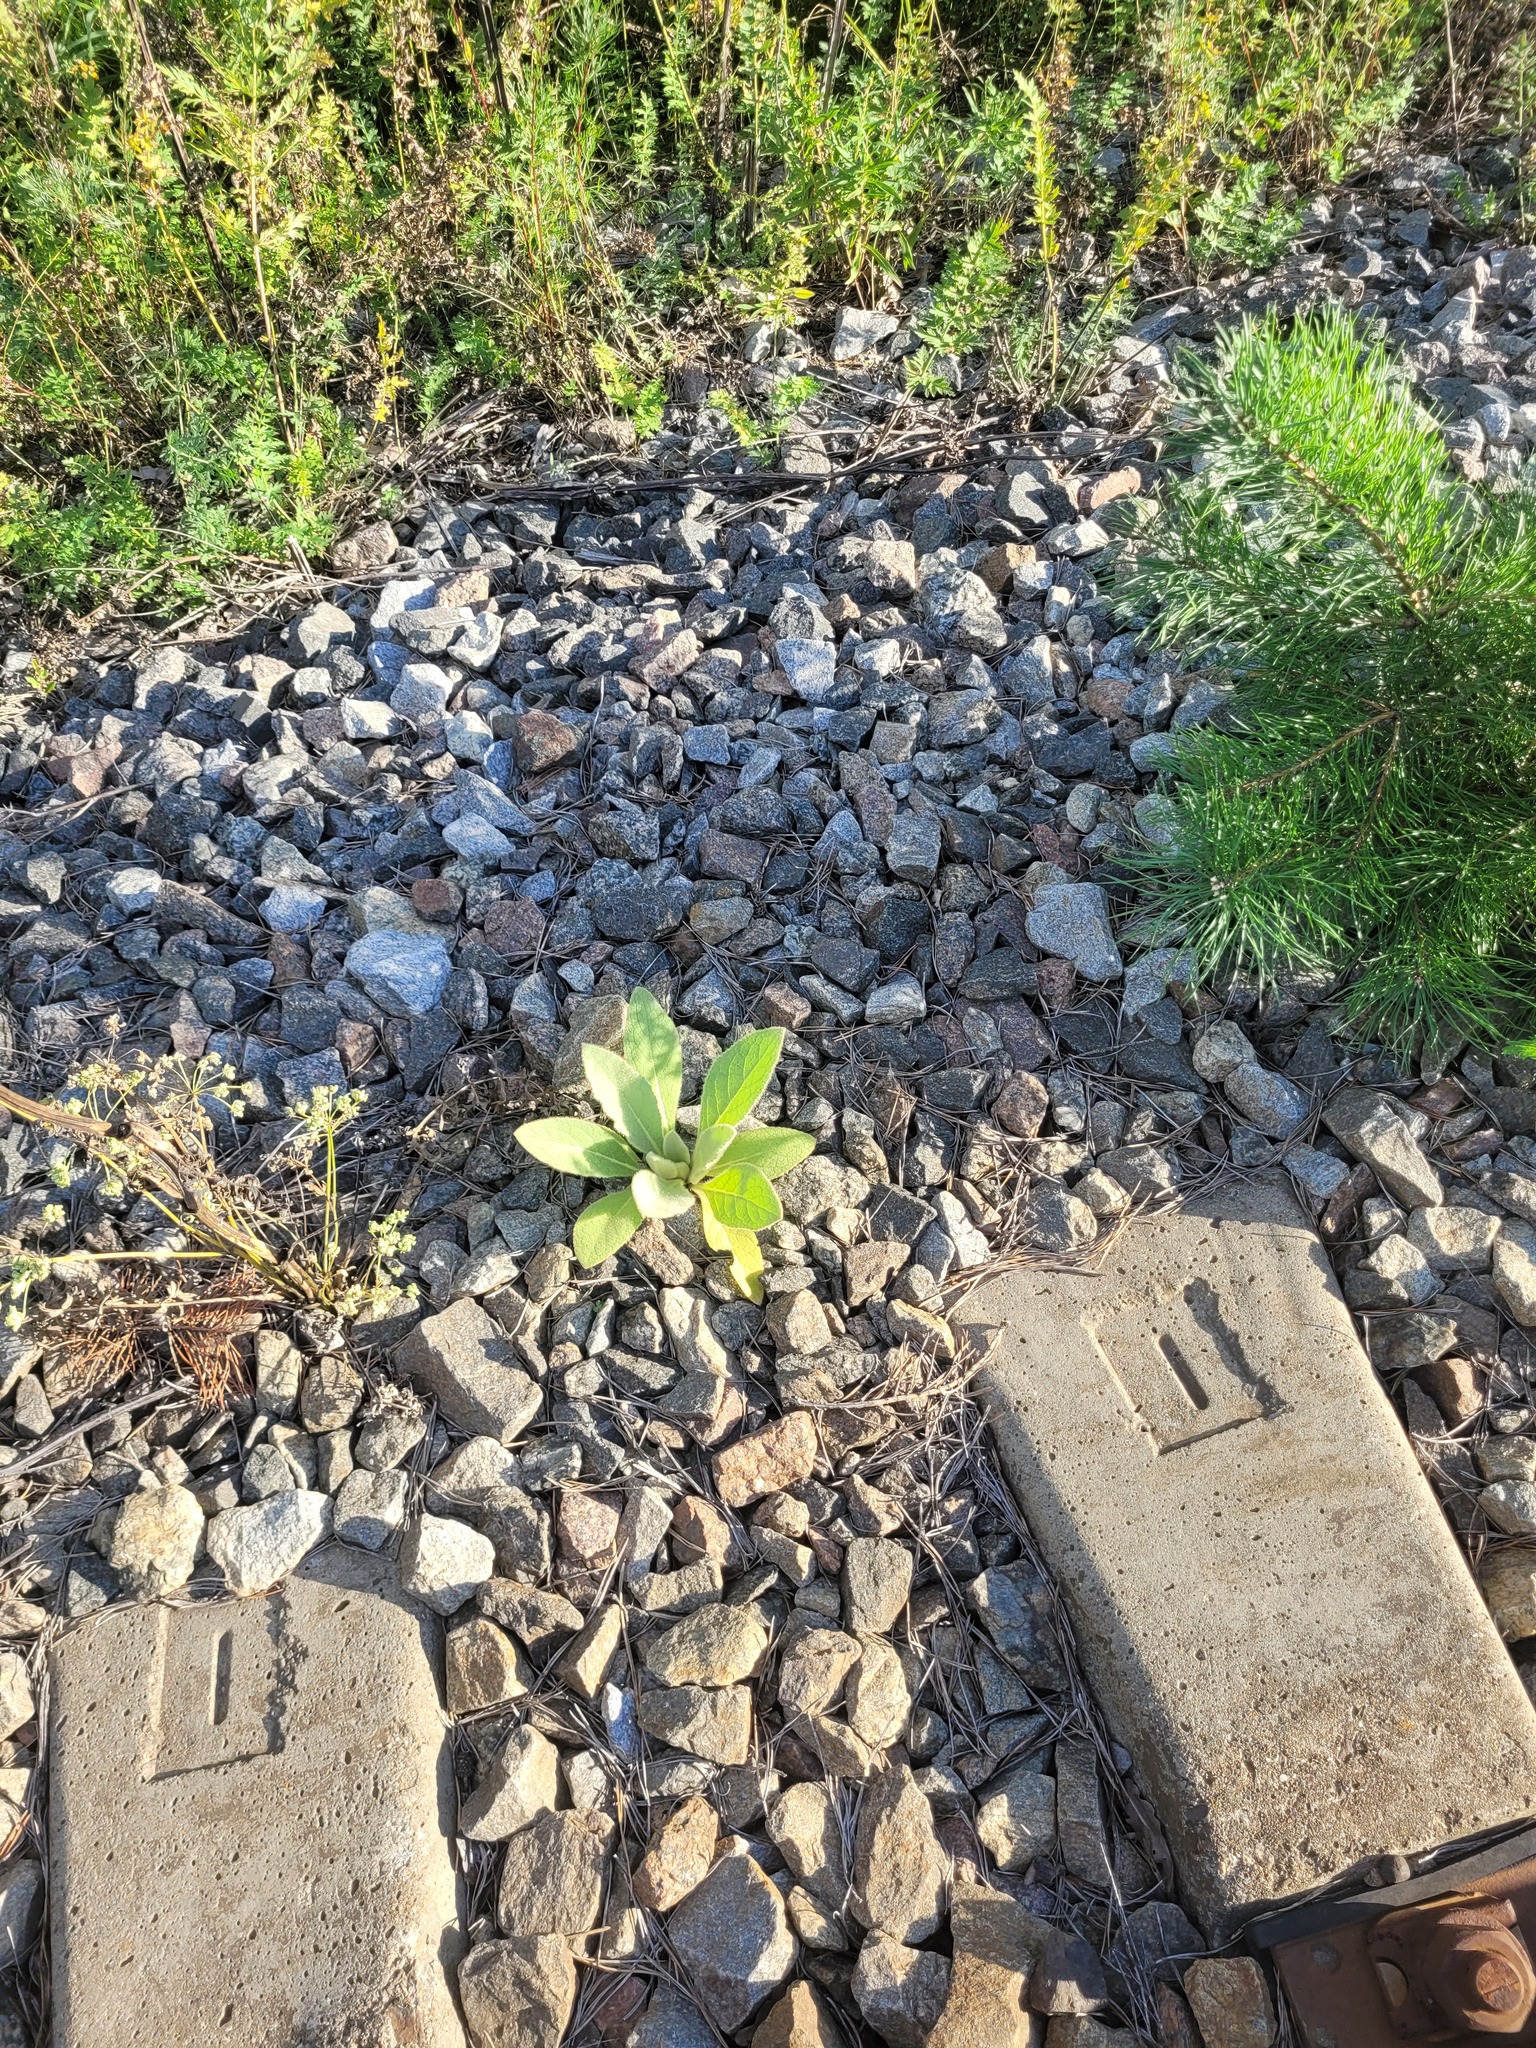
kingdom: Plantae
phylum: Tracheophyta
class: Magnoliopsida
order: Lamiales
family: Scrophulariaceae
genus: Verbascum
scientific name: Verbascum thapsus
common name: Common mullein
